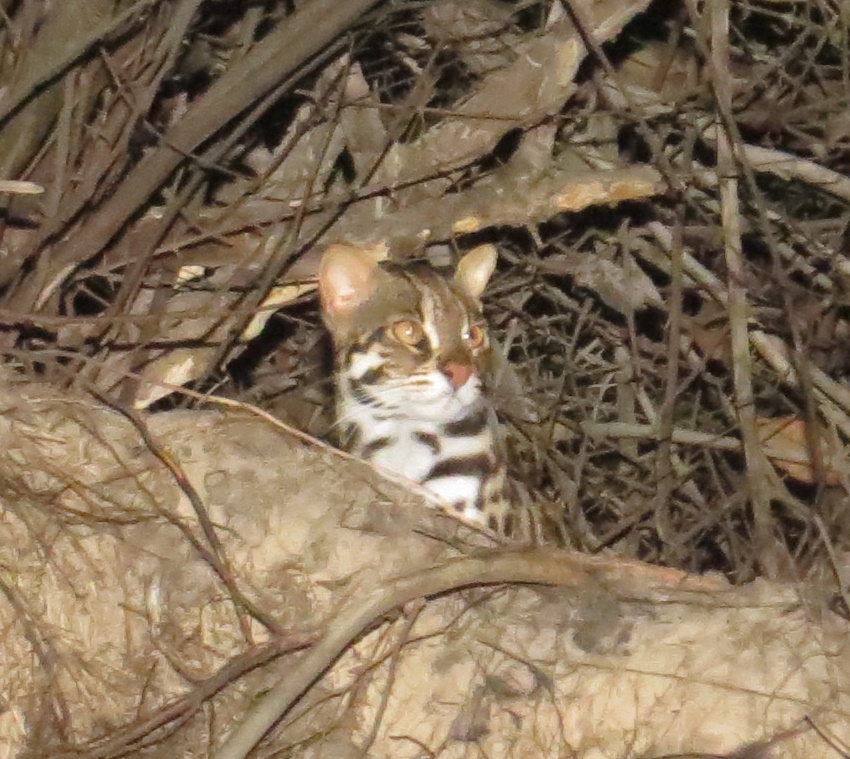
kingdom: Animalia
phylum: Chordata
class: Mammalia
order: Carnivora
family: Felidae
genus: Prionailurus
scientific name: Prionailurus bengalensis
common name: Leopard cat
